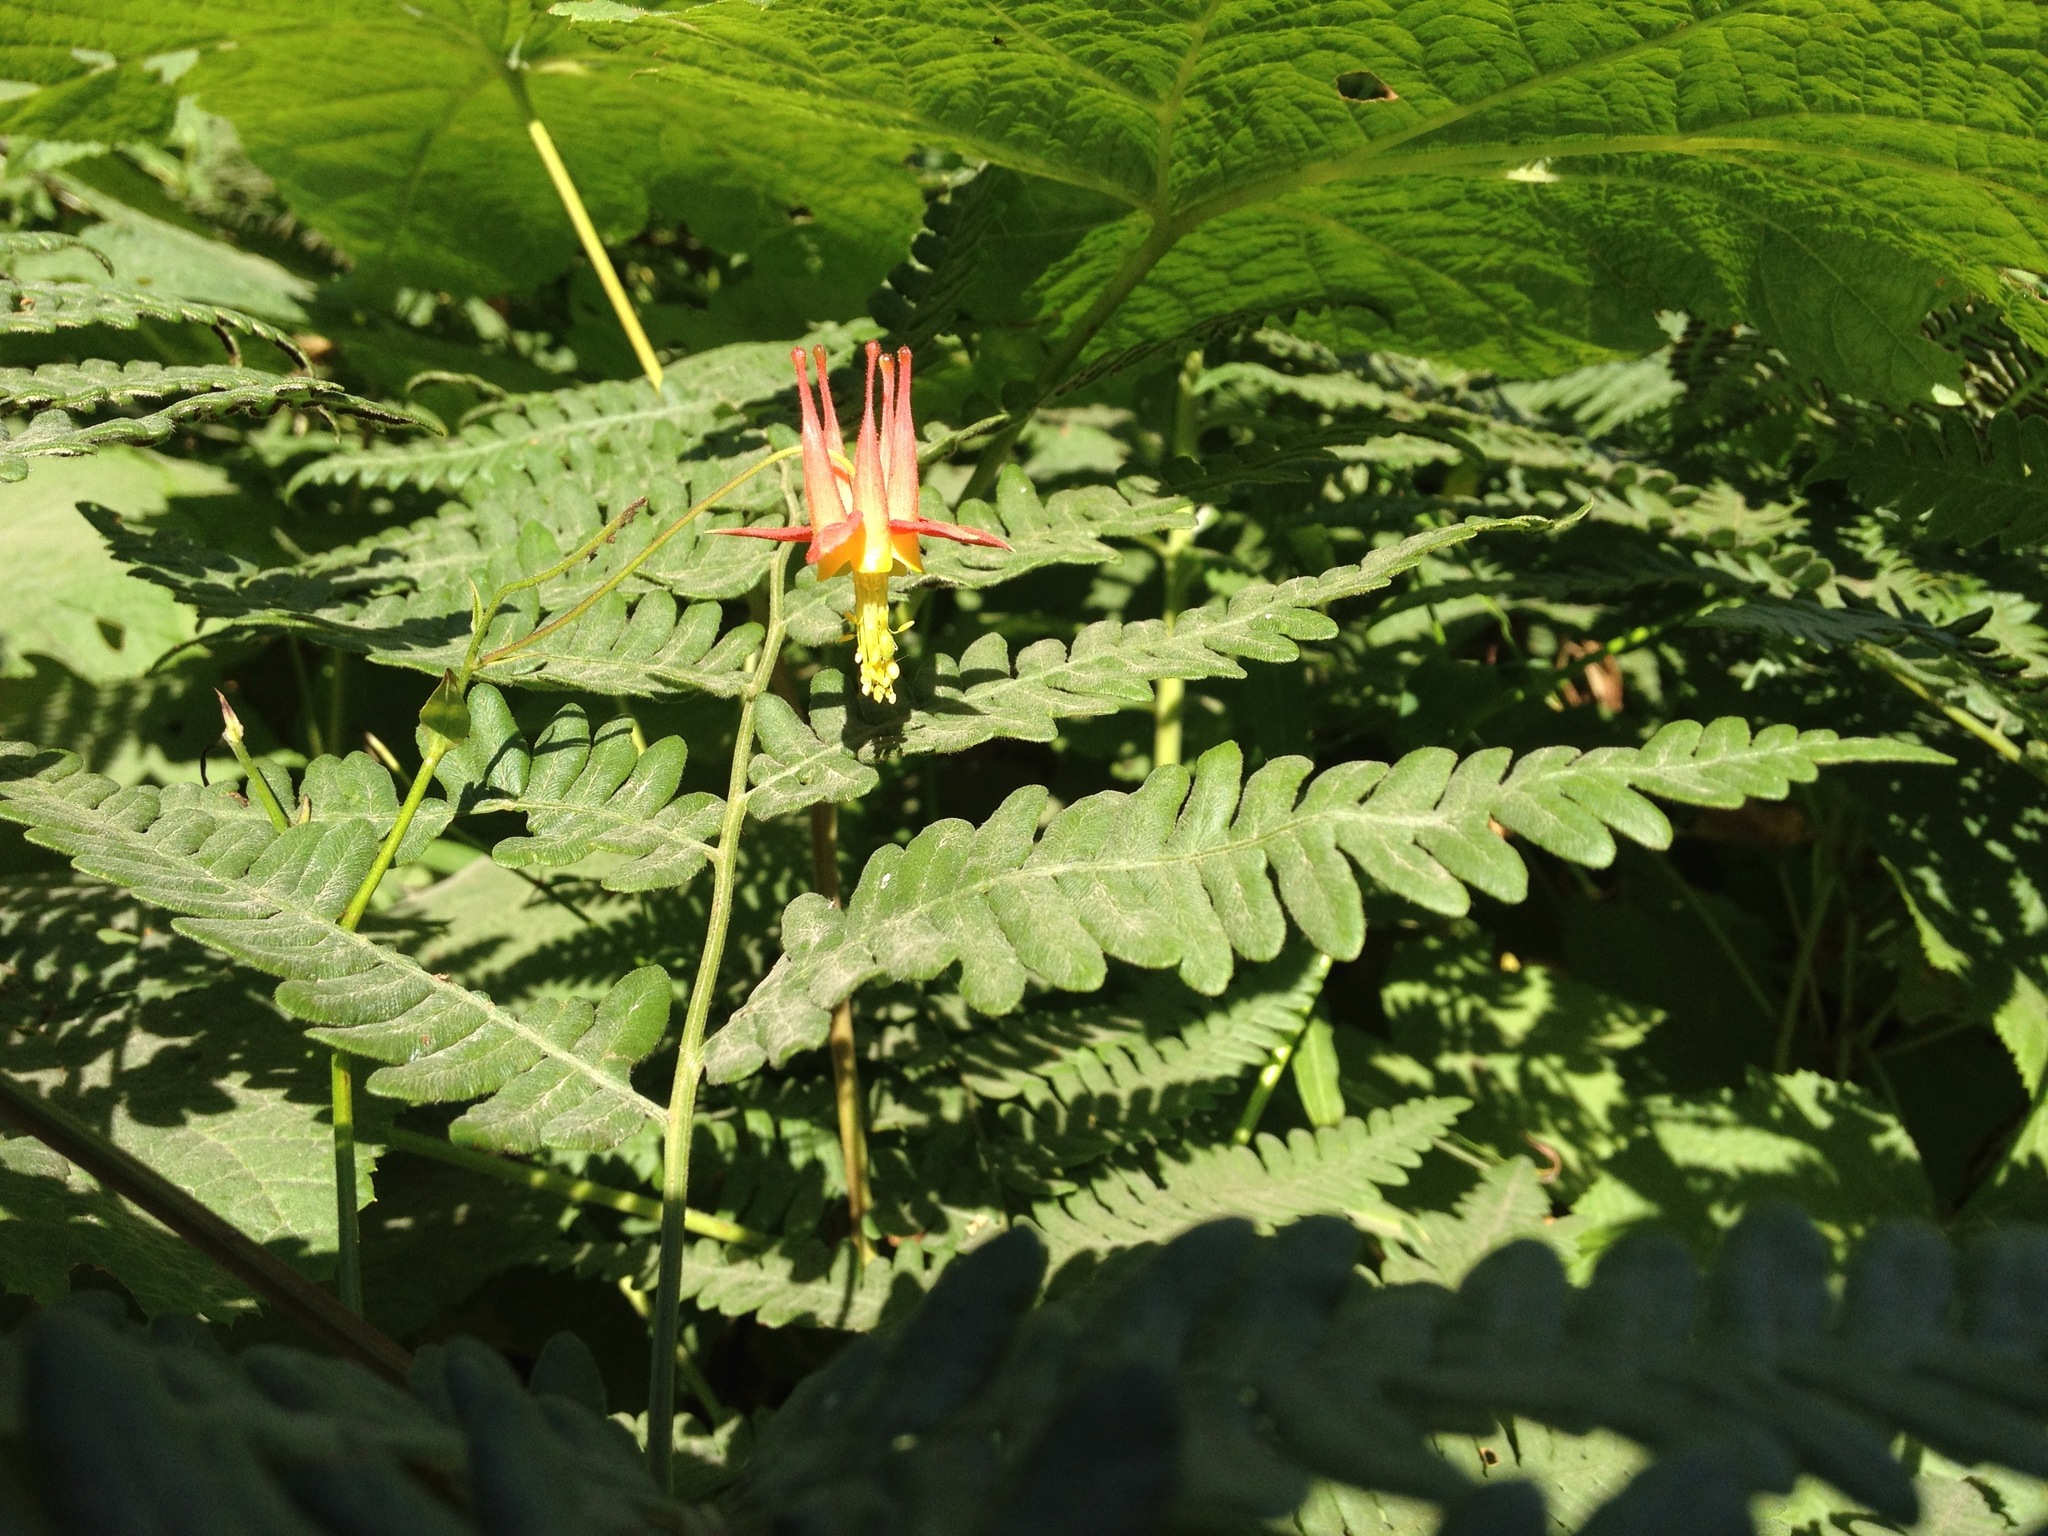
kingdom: Plantae
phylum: Tracheophyta
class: Magnoliopsida
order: Ranunculales
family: Ranunculaceae
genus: Aquilegia
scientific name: Aquilegia formosa
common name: Sitka columbine
